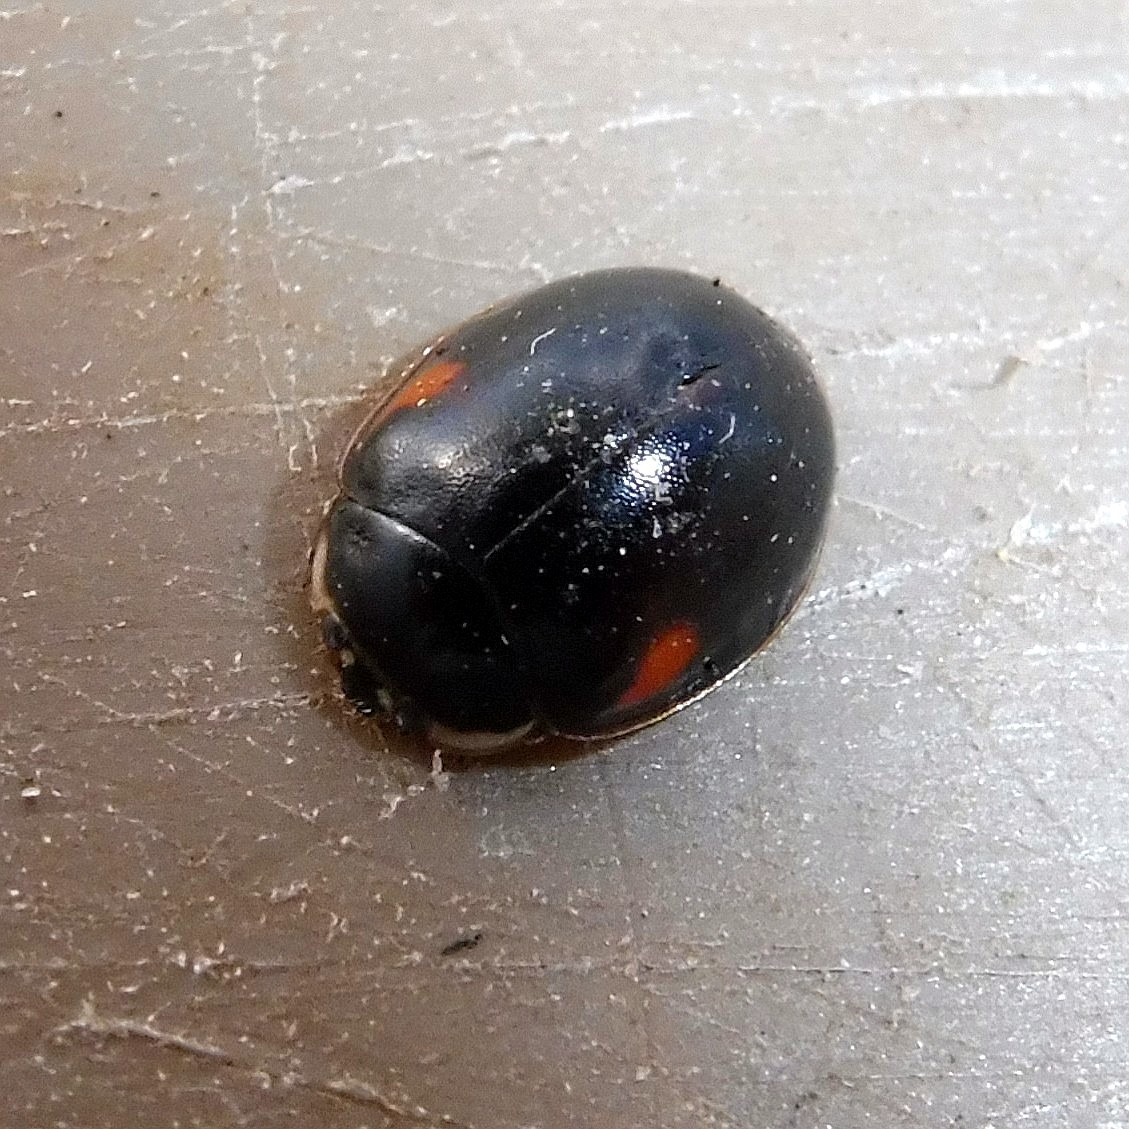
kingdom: Animalia
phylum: Arthropoda
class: Insecta
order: Coleoptera
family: Coccinellidae
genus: Adalia
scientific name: Adalia decempunctata
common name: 10-spot ladybird
